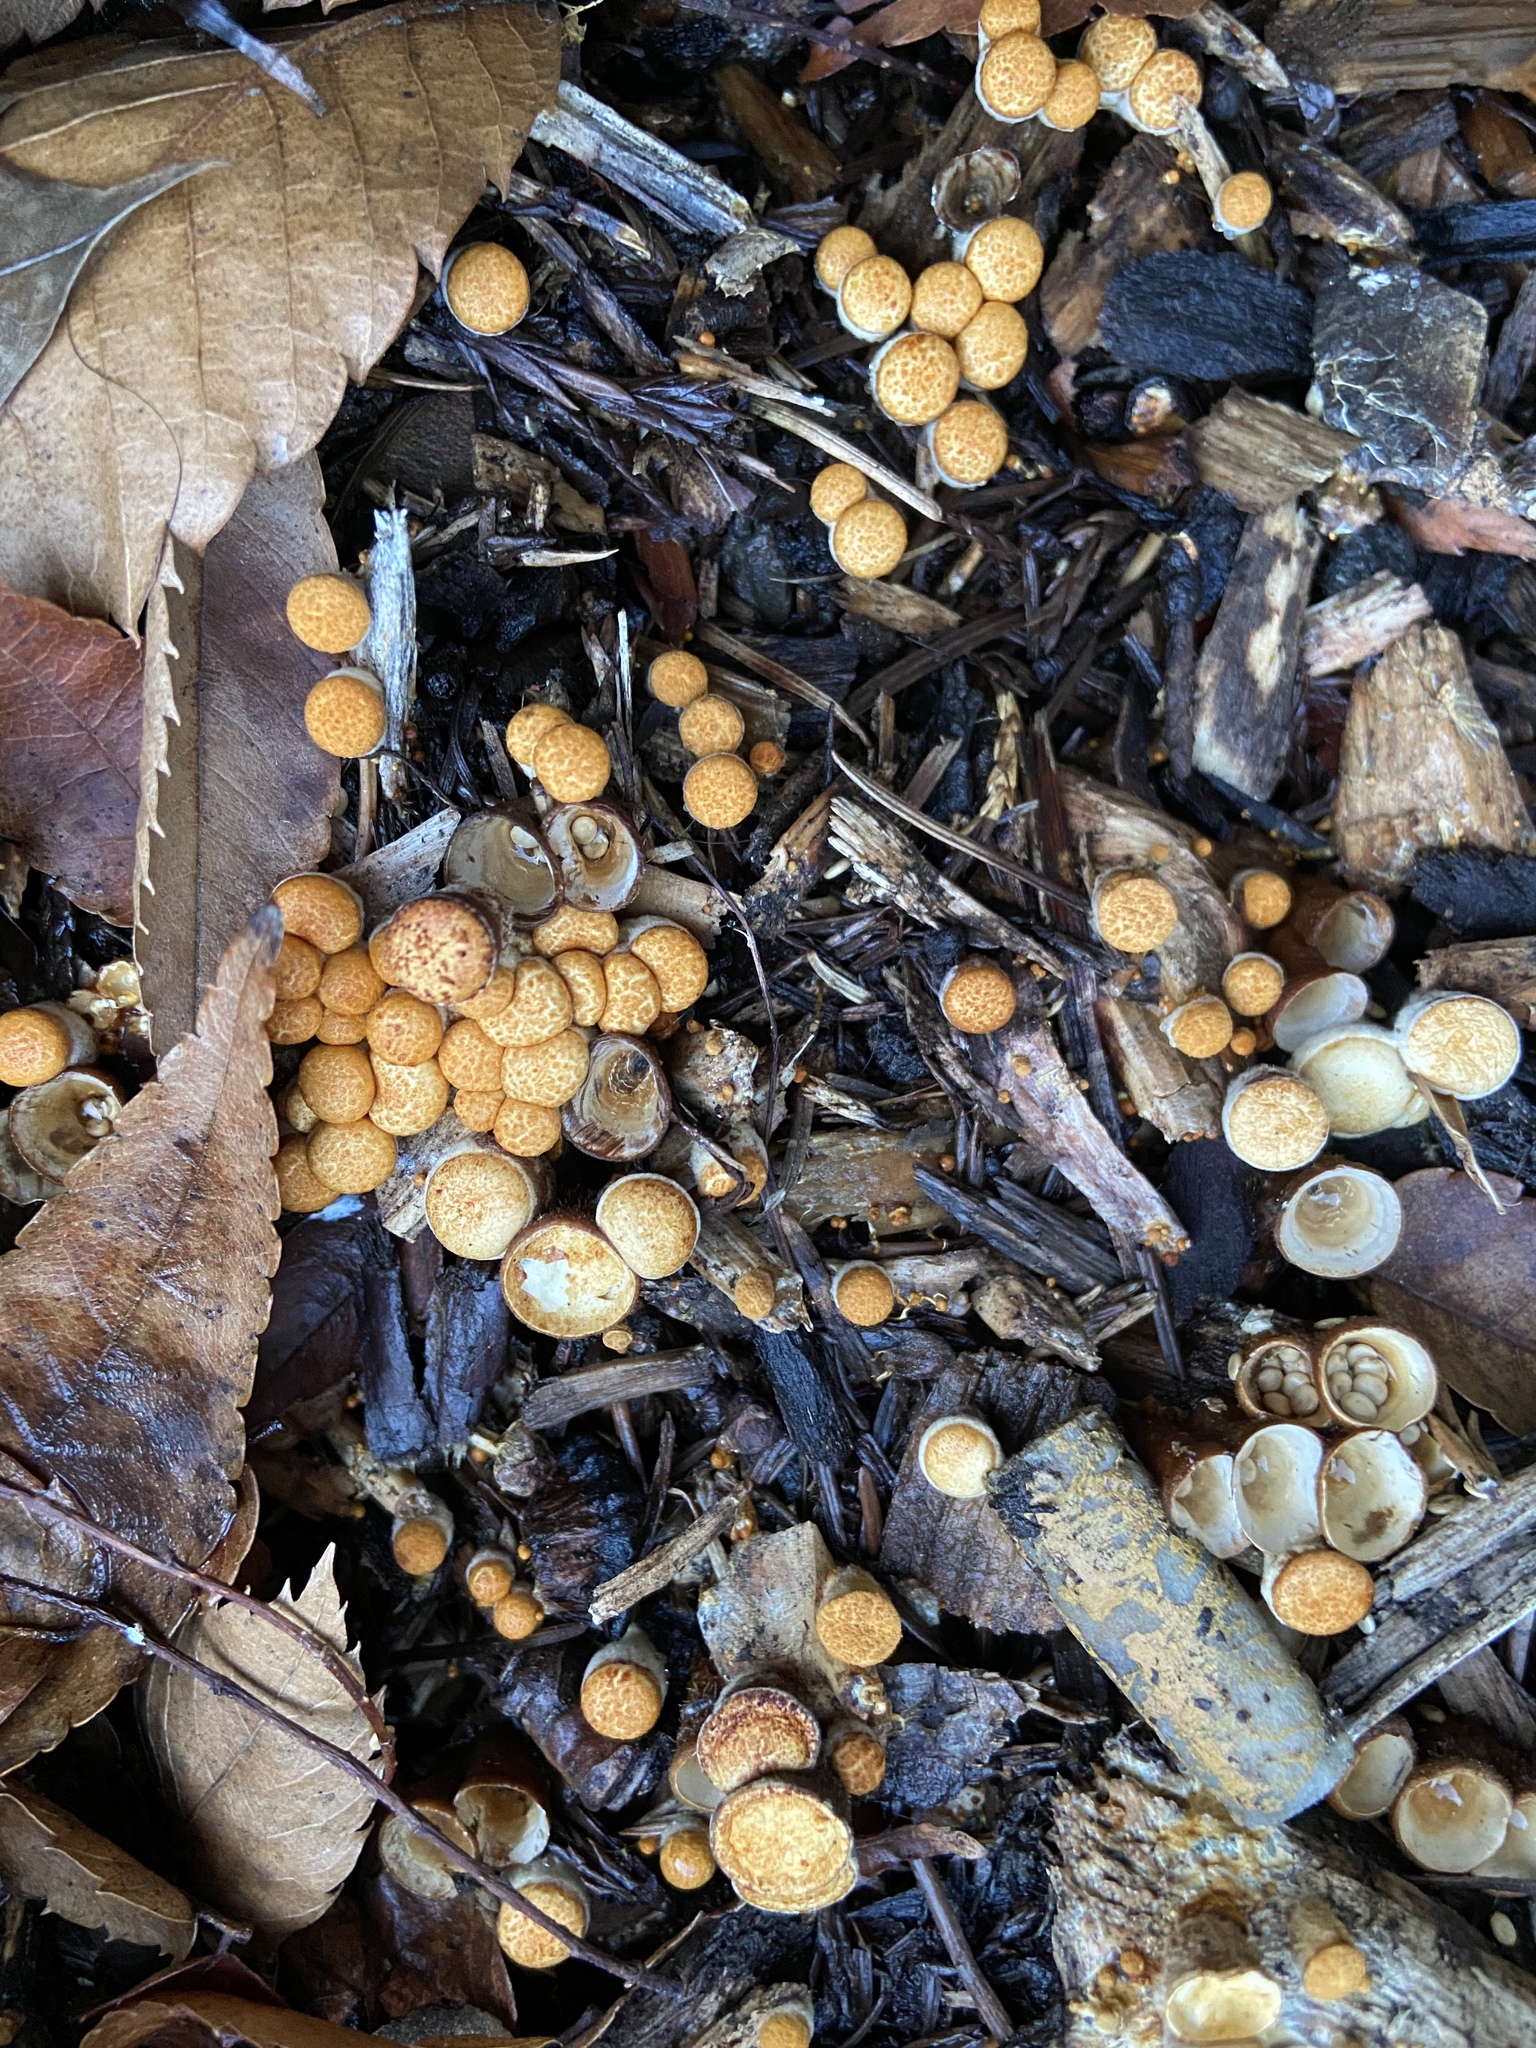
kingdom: Fungi
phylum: Basidiomycota
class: Agaricomycetes
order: Agaricales
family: Nidulariaceae
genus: Crucibulum
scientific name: Crucibulum laeve
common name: Common bird's nest
